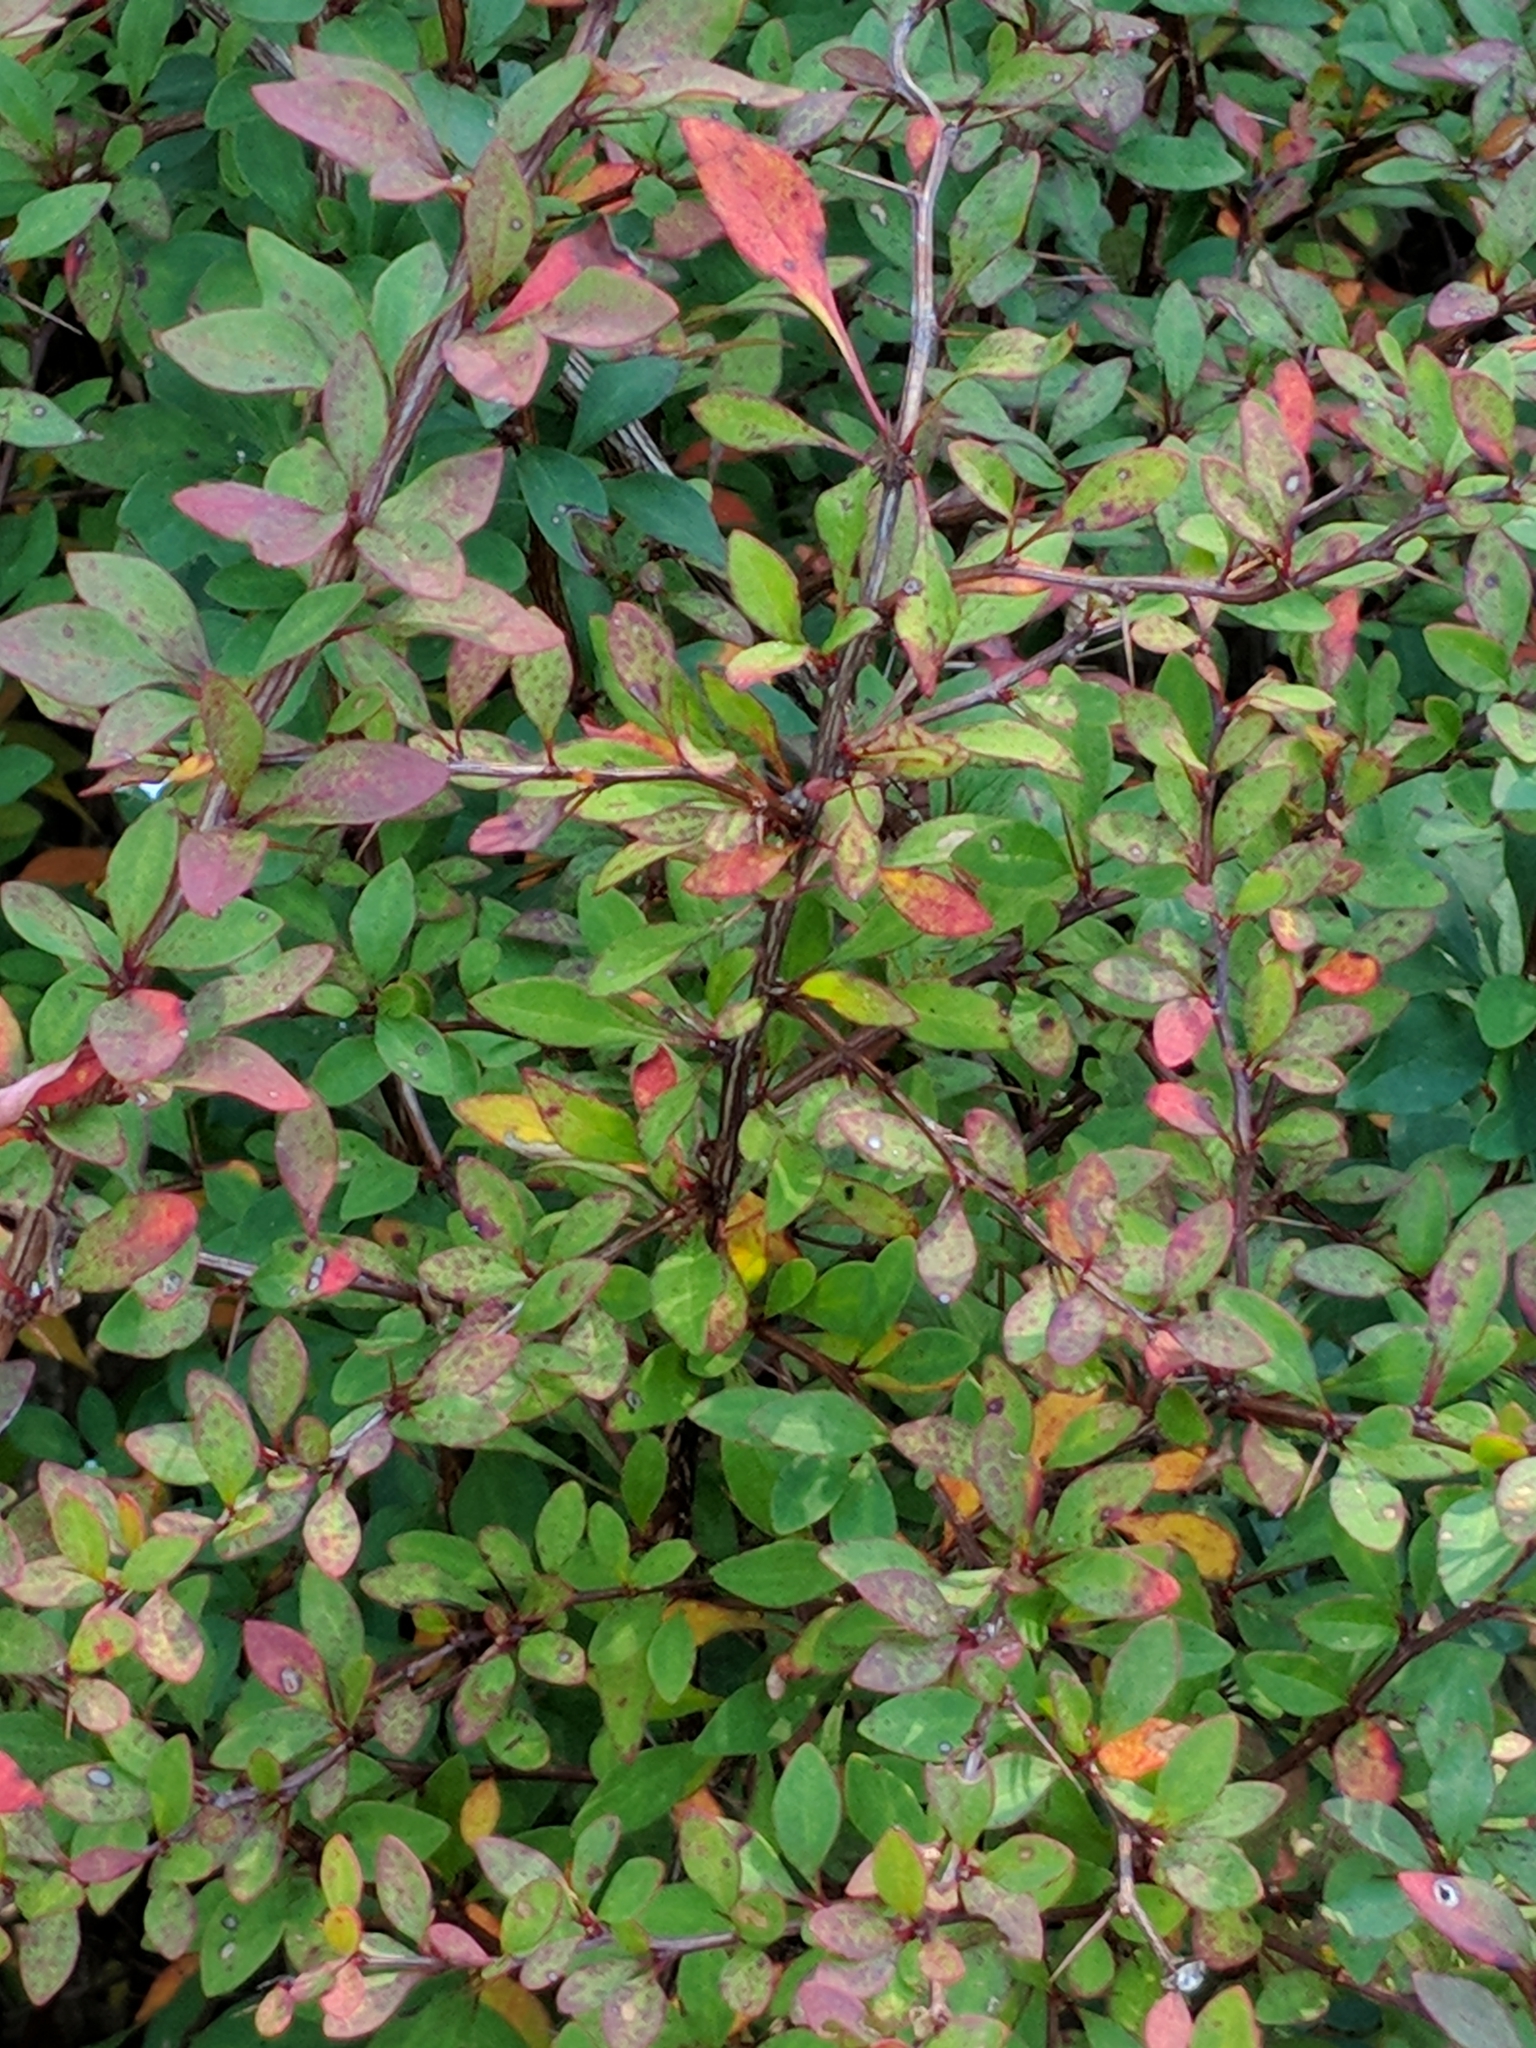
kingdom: Plantae
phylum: Tracheophyta
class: Magnoliopsida
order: Ranunculales
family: Berberidaceae
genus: Berberis
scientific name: Berberis thunbergii
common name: Japanese barberry
